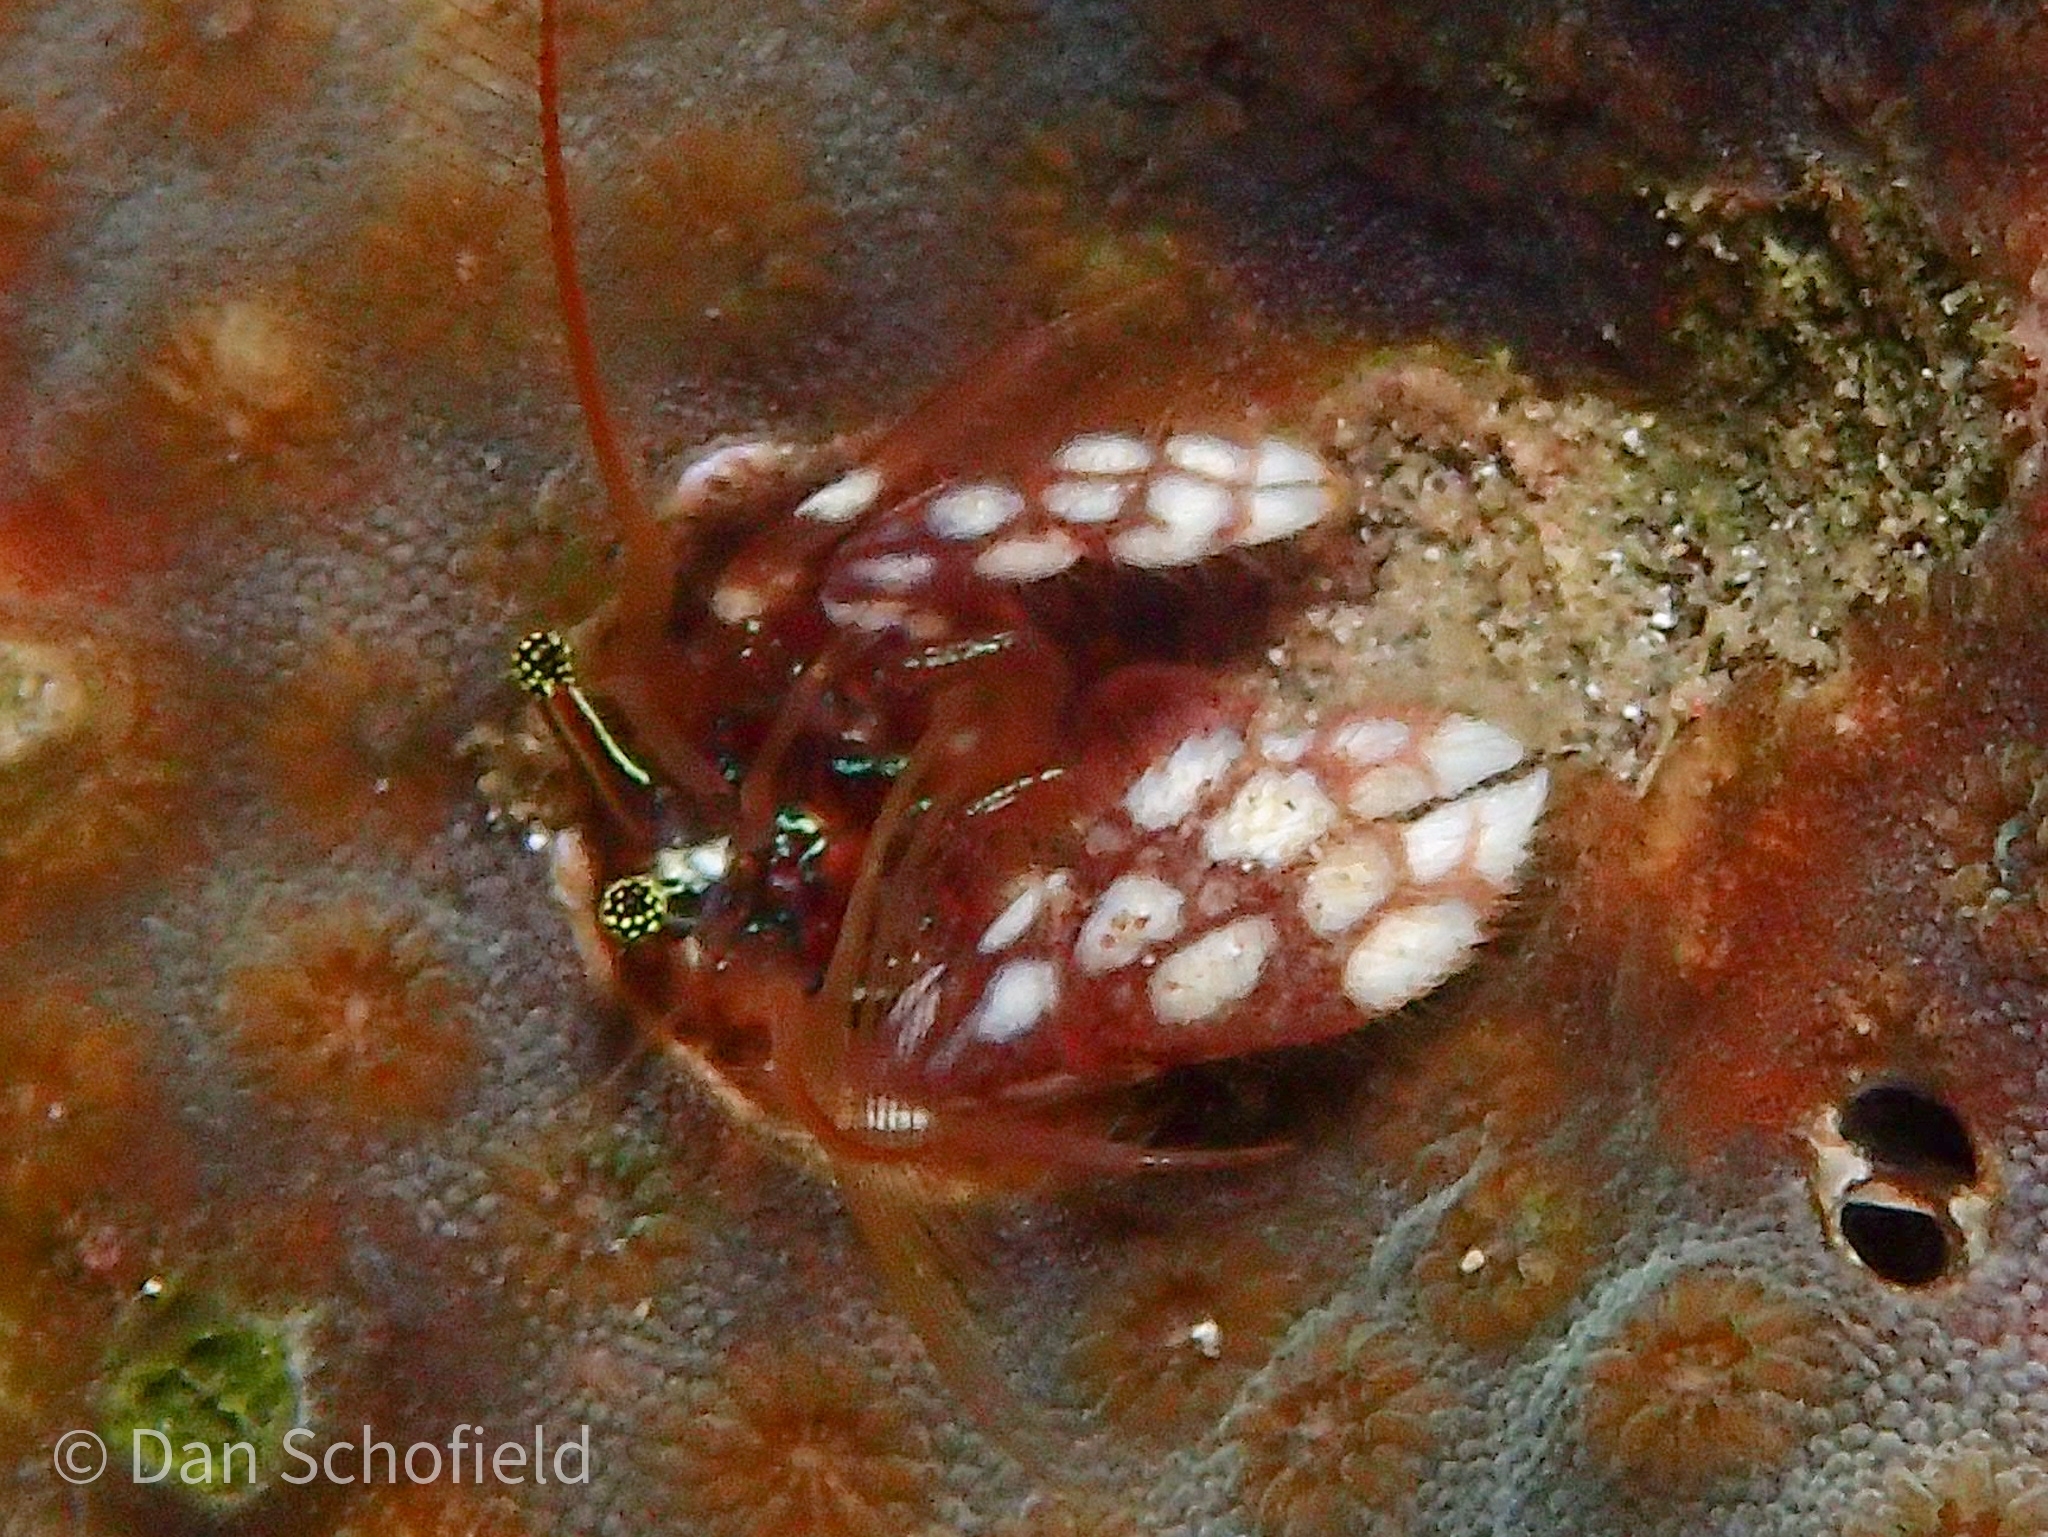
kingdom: Animalia
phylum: Arthropoda
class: Malacostraca
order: Decapoda
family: Paguridae
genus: Paguritta
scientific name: Paguritta morgani
